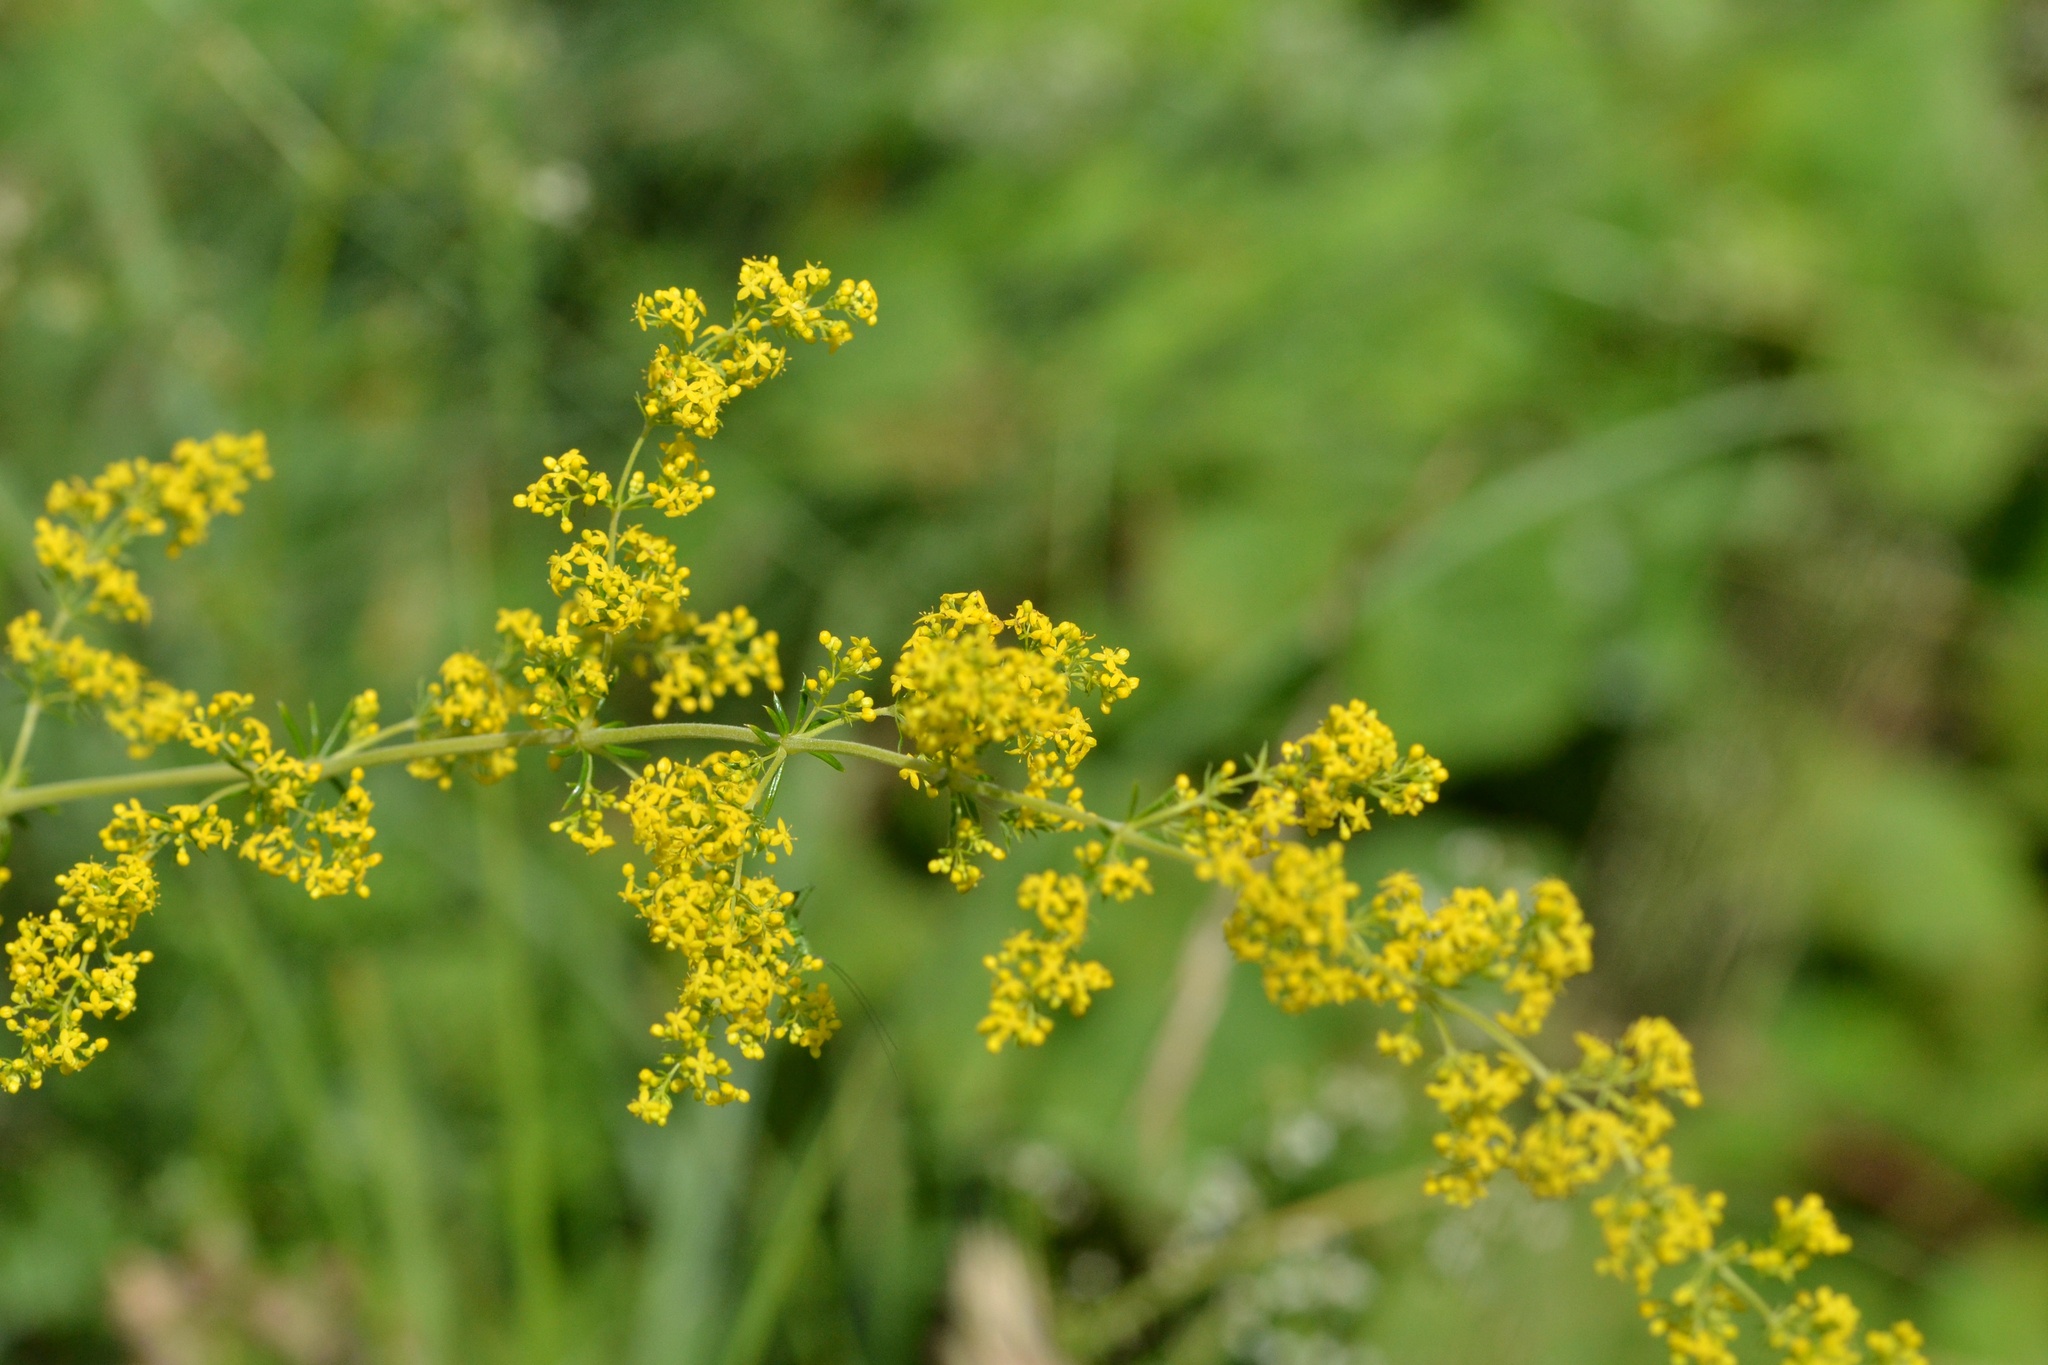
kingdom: Plantae
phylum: Tracheophyta
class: Magnoliopsida
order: Gentianales
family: Rubiaceae
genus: Galium
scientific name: Galium verum
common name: Lady's bedstraw
